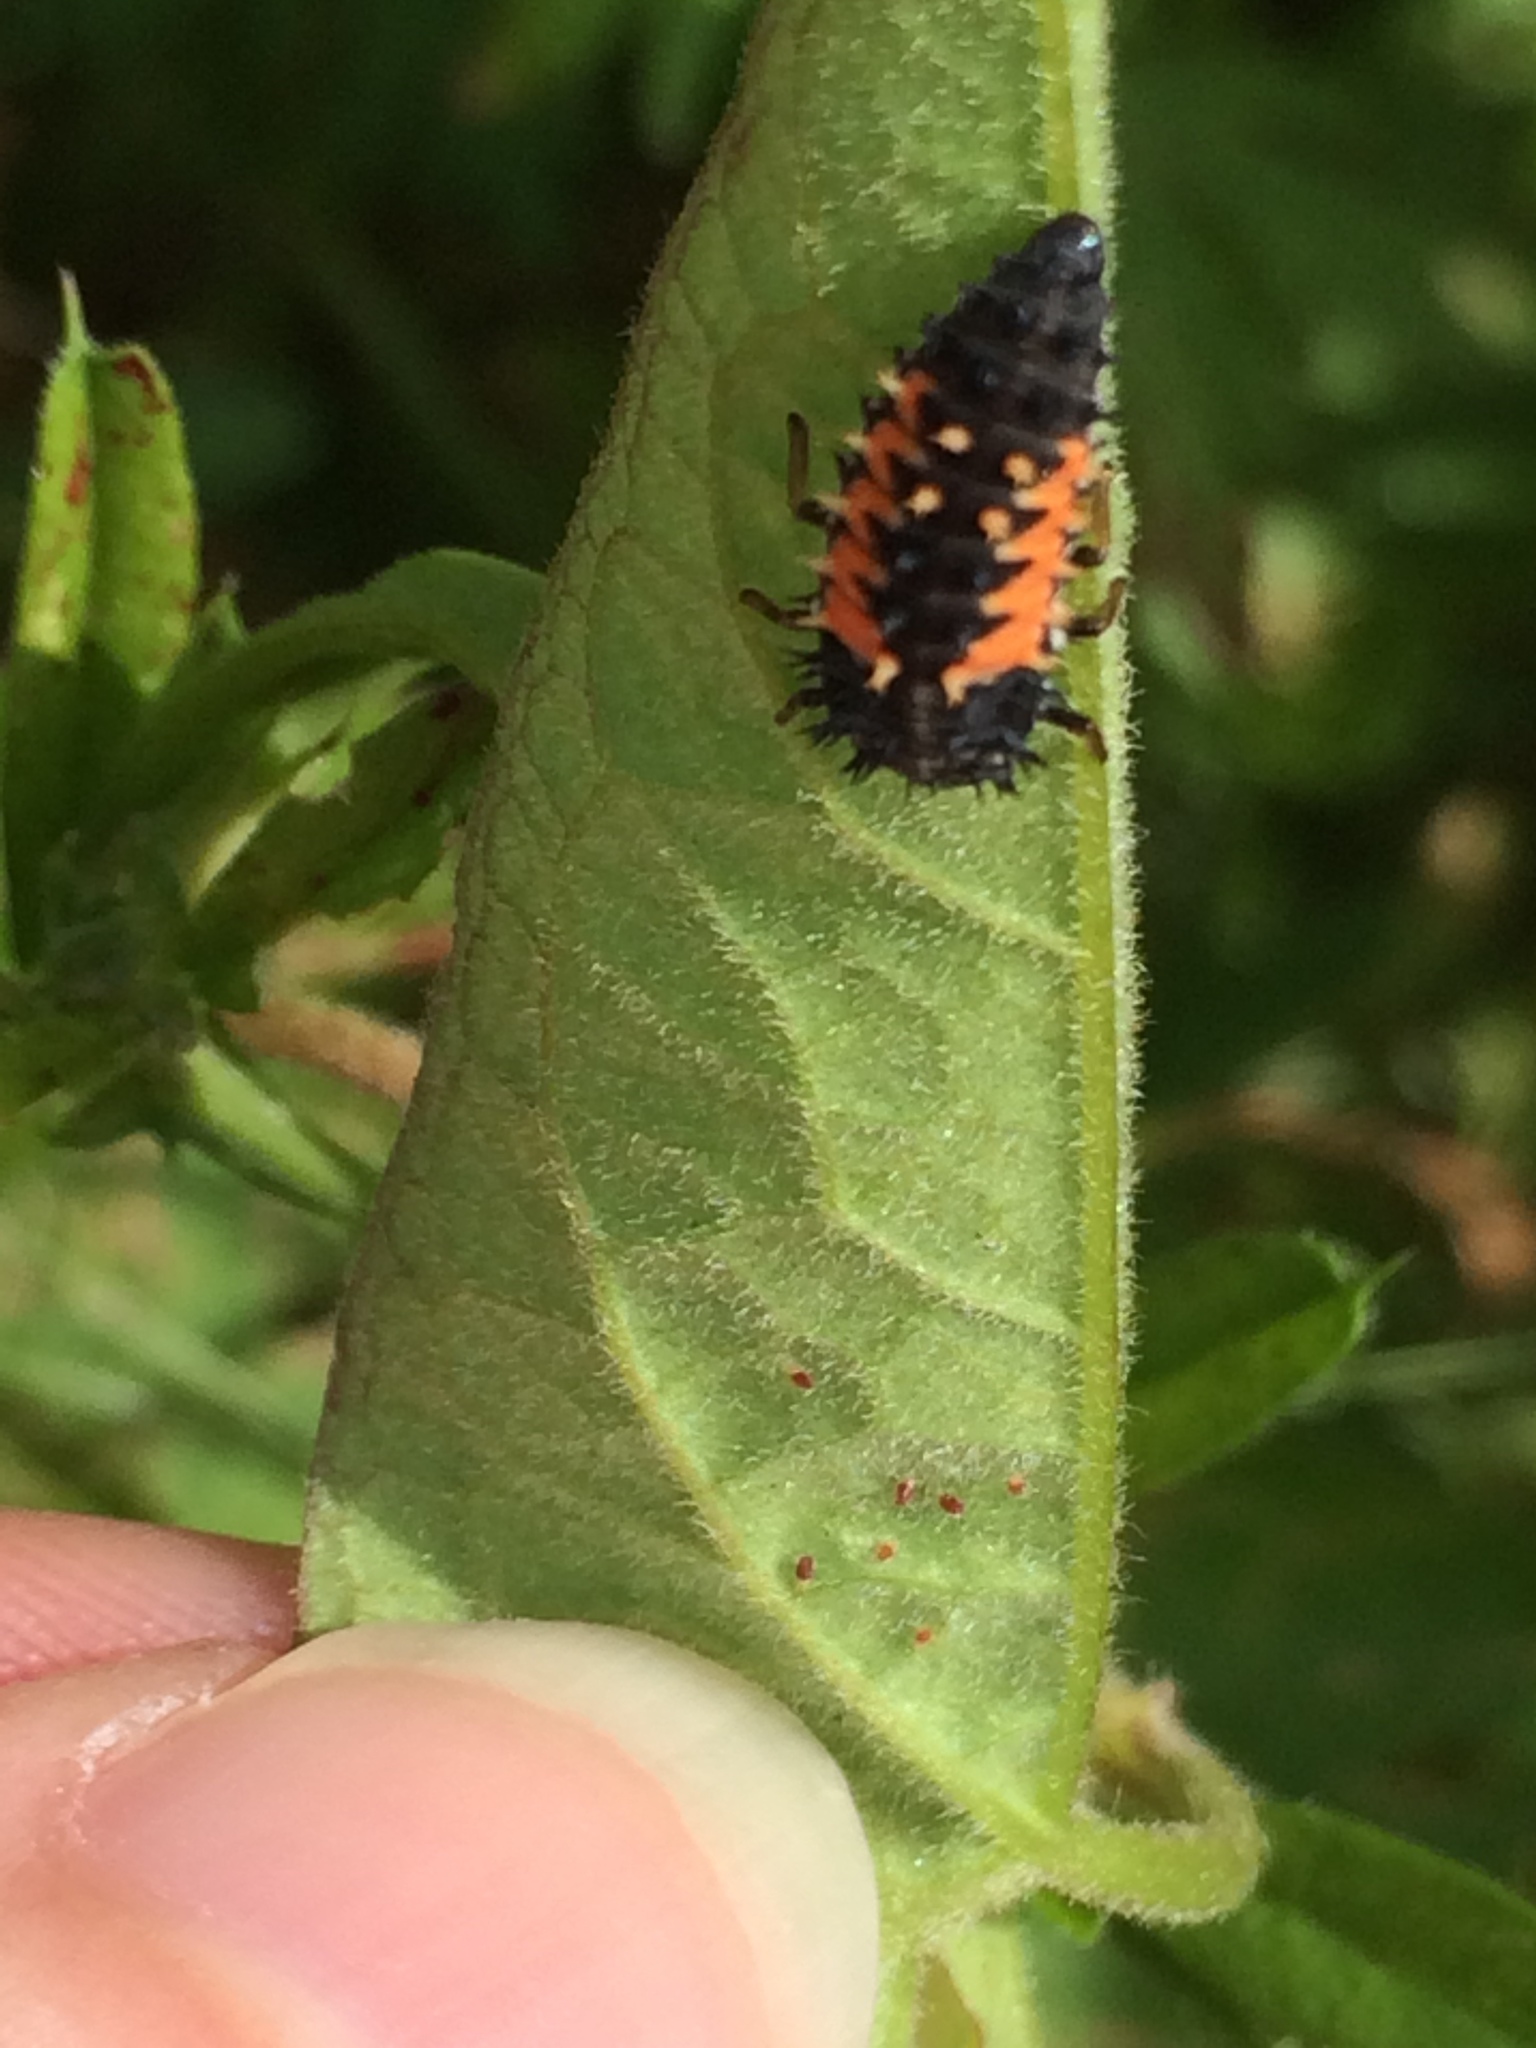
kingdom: Animalia
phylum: Arthropoda
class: Insecta
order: Coleoptera
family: Coccinellidae
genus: Harmonia
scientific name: Harmonia axyridis
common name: Harlequin ladybird
